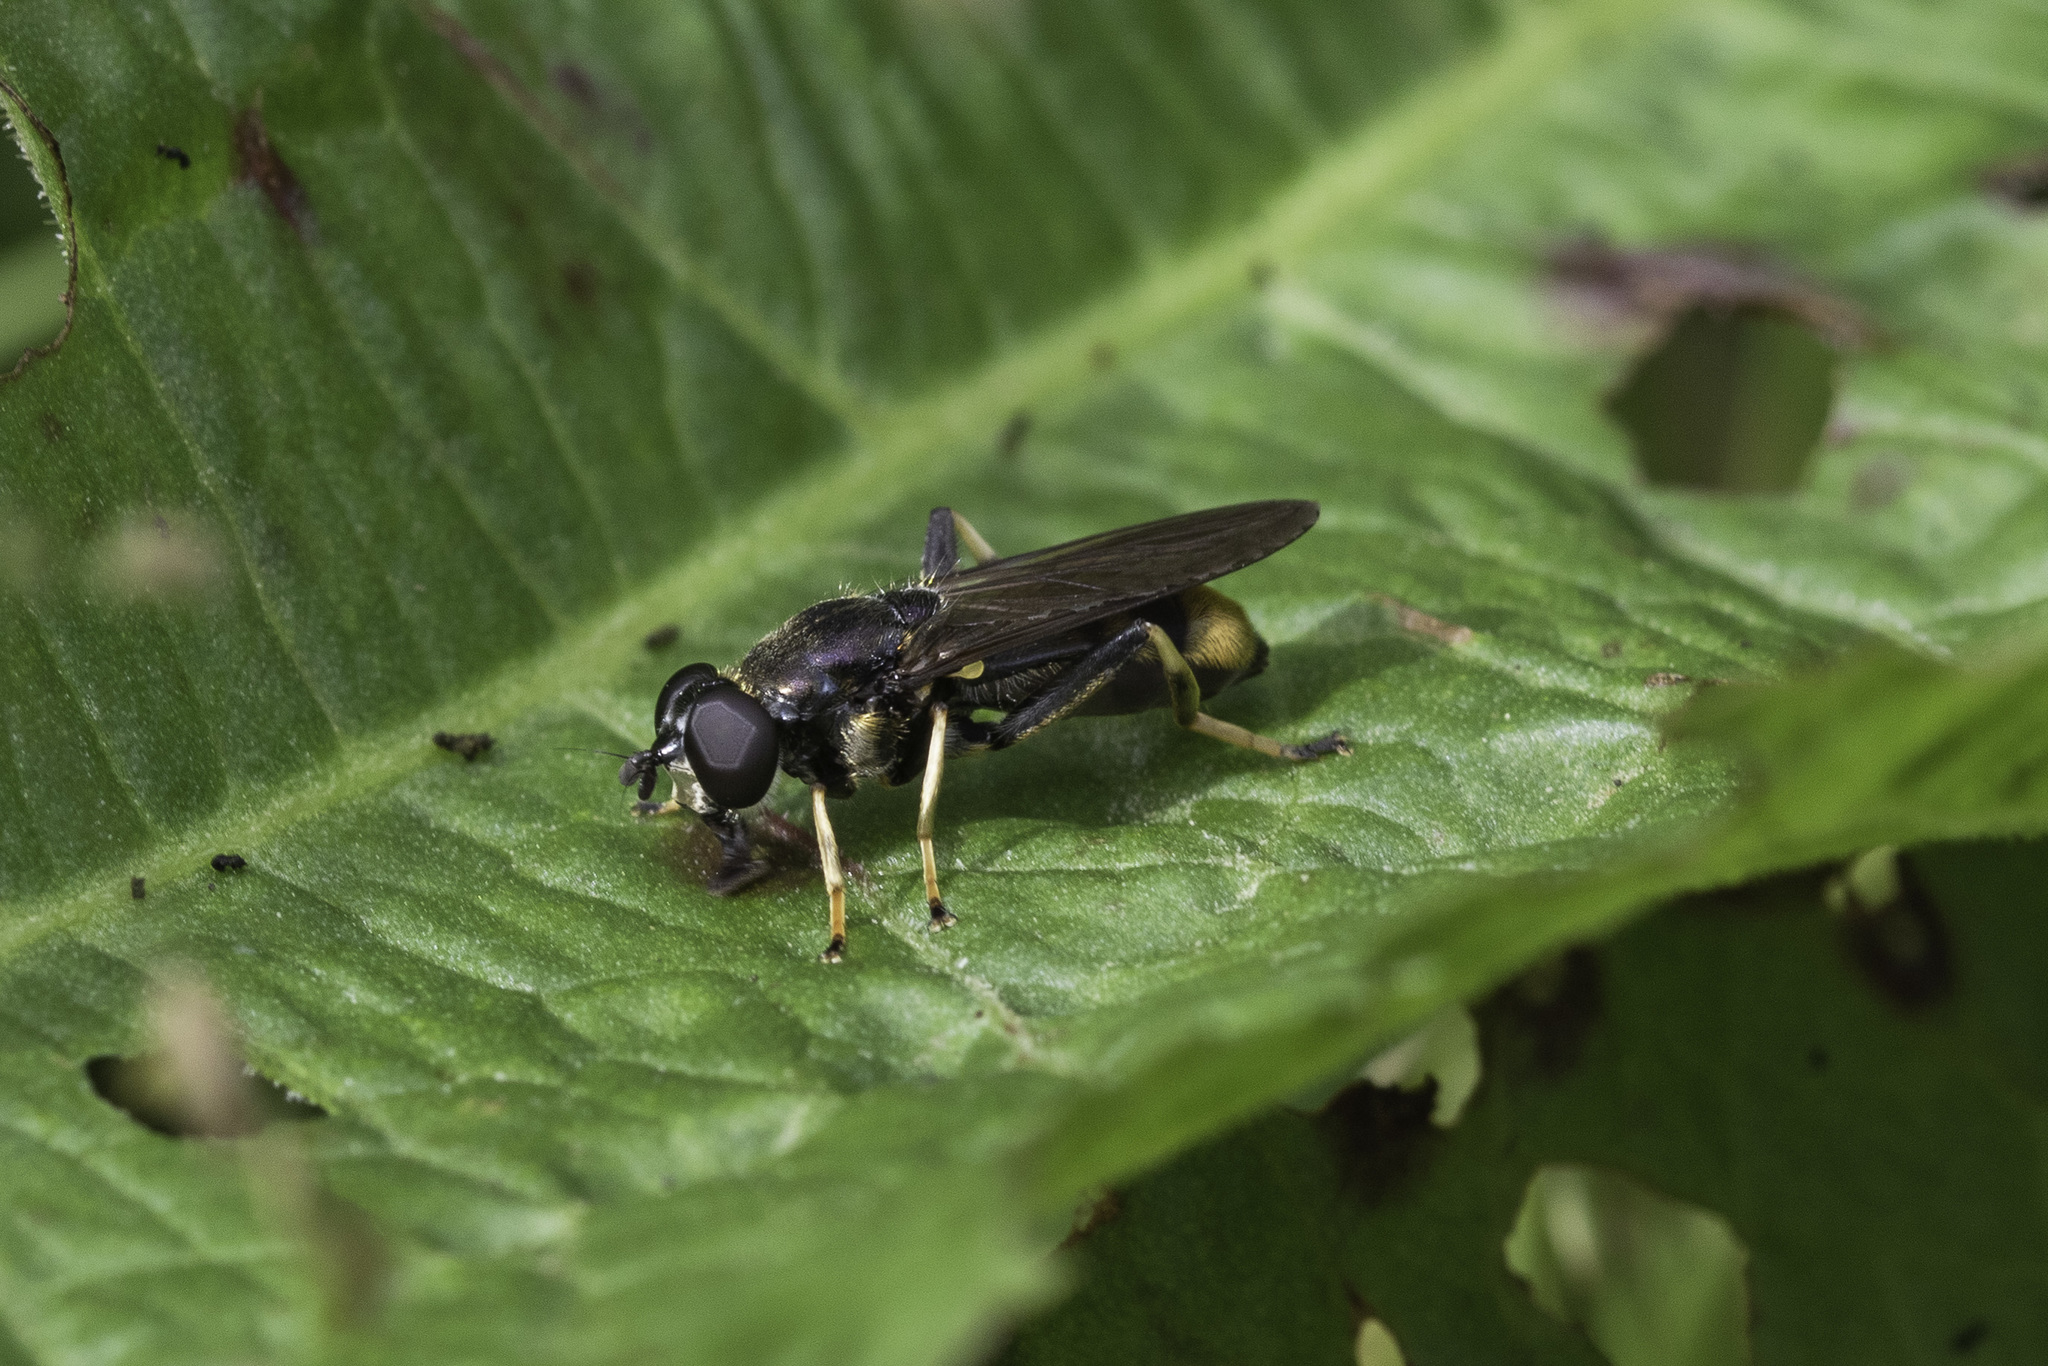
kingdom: Animalia
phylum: Arthropoda
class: Insecta
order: Diptera
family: Syrphidae
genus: Xylota
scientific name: Xylota sylvarum
